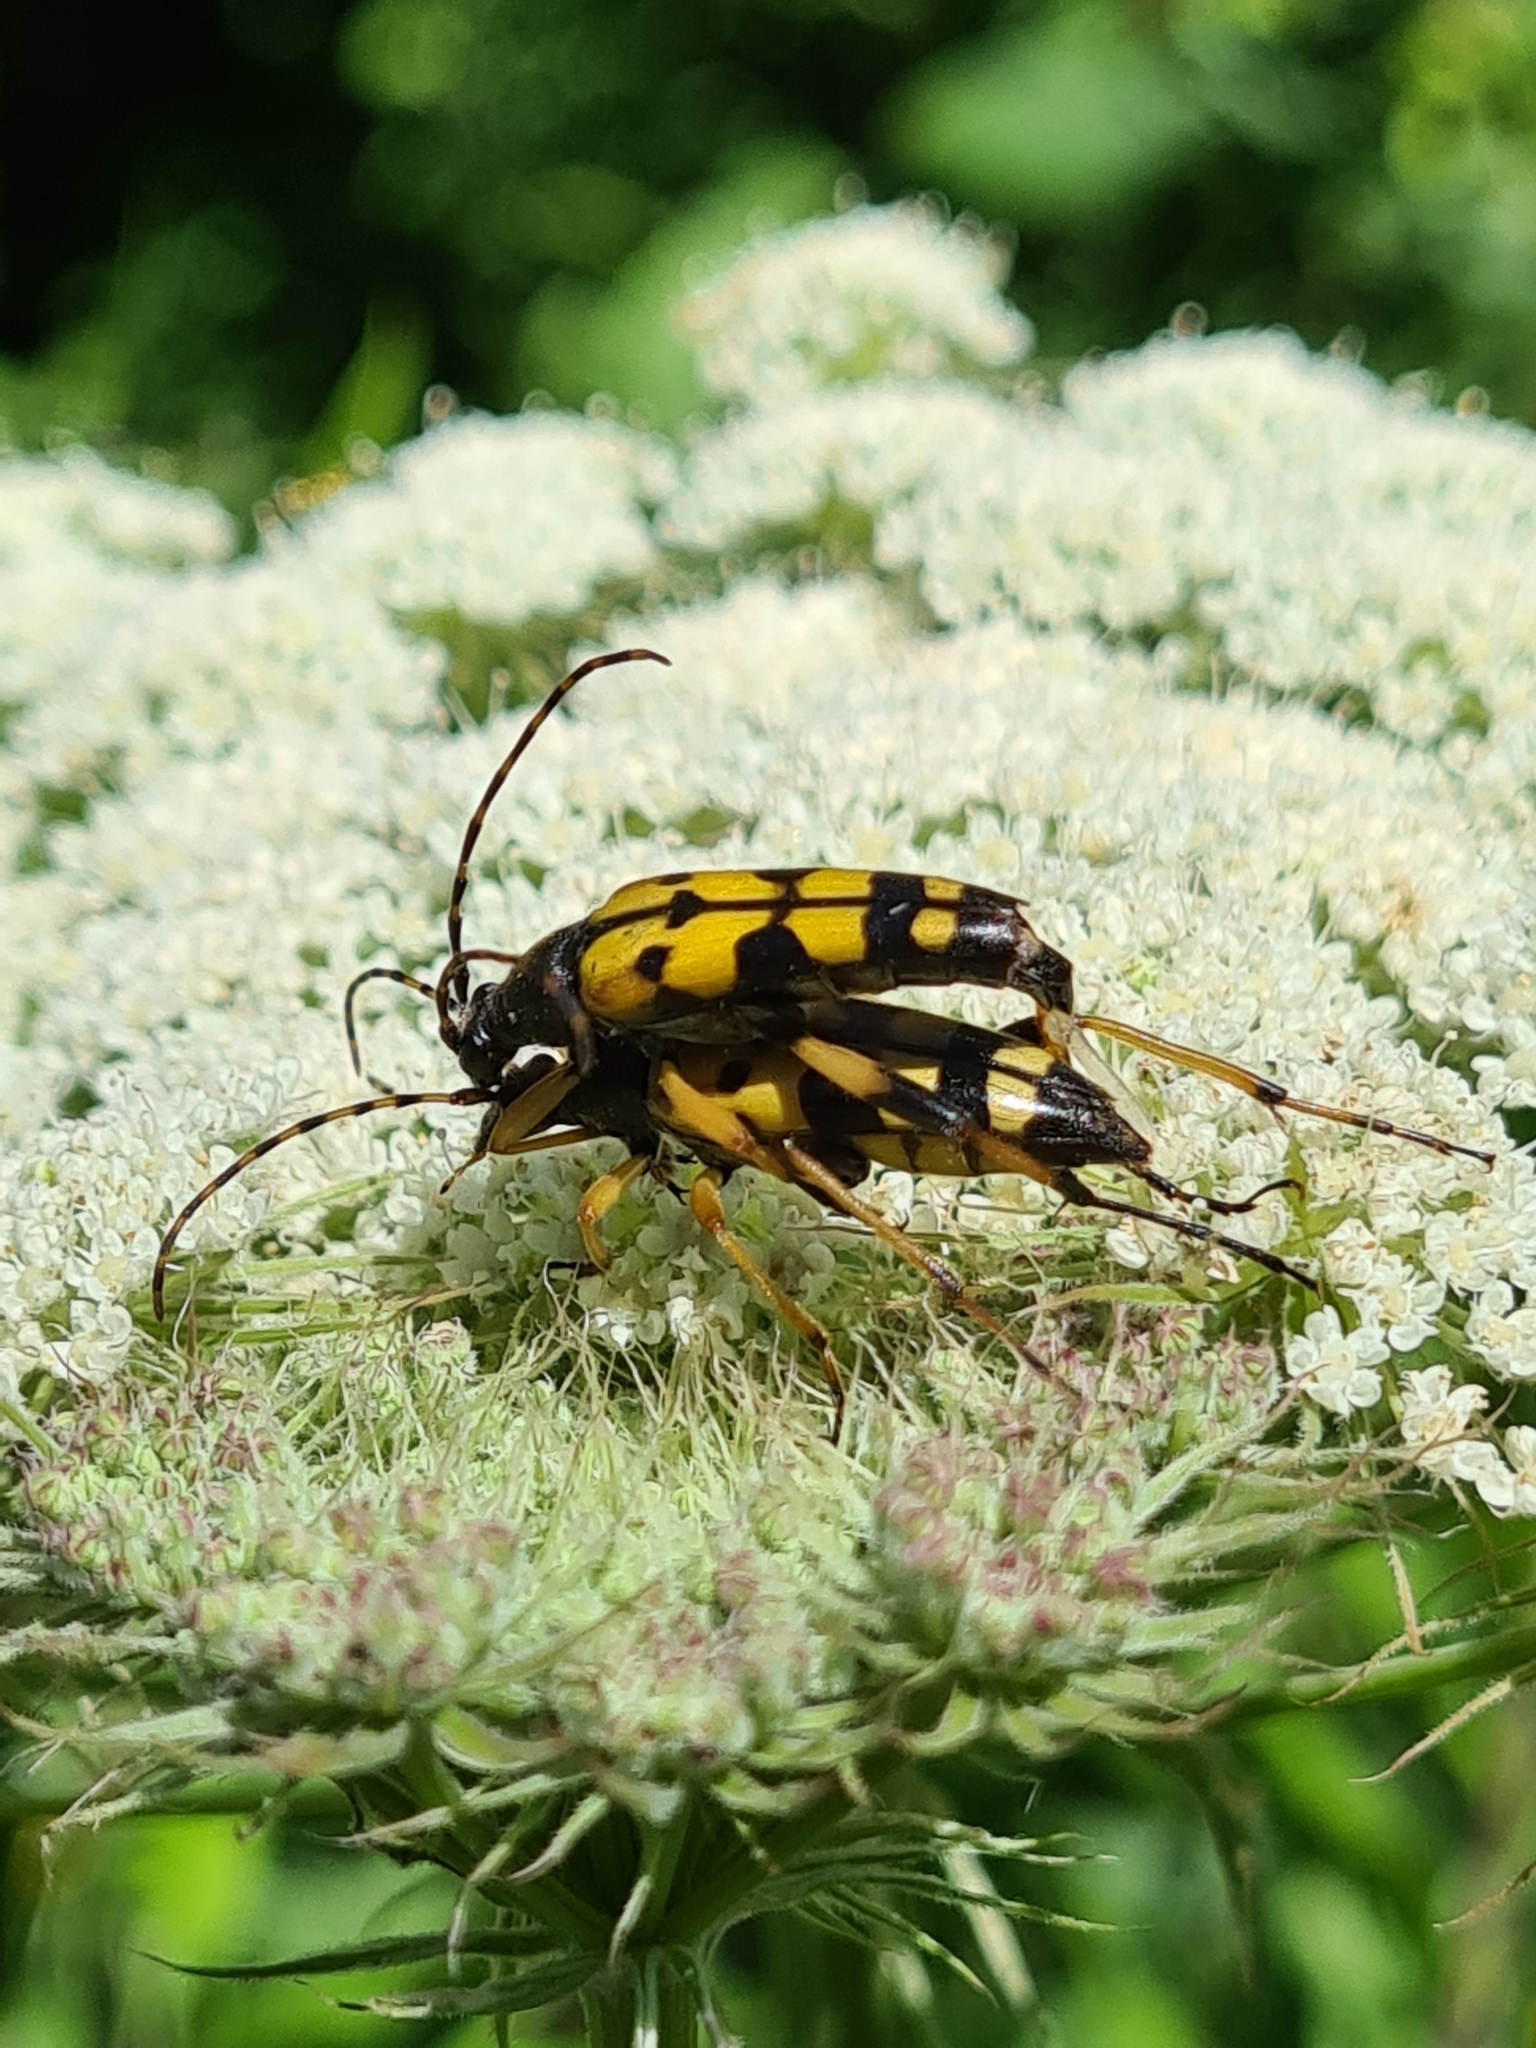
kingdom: Animalia
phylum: Arthropoda
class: Insecta
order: Coleoptera
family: Cerambycidae
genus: Rutpela
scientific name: Rutpela maculata
